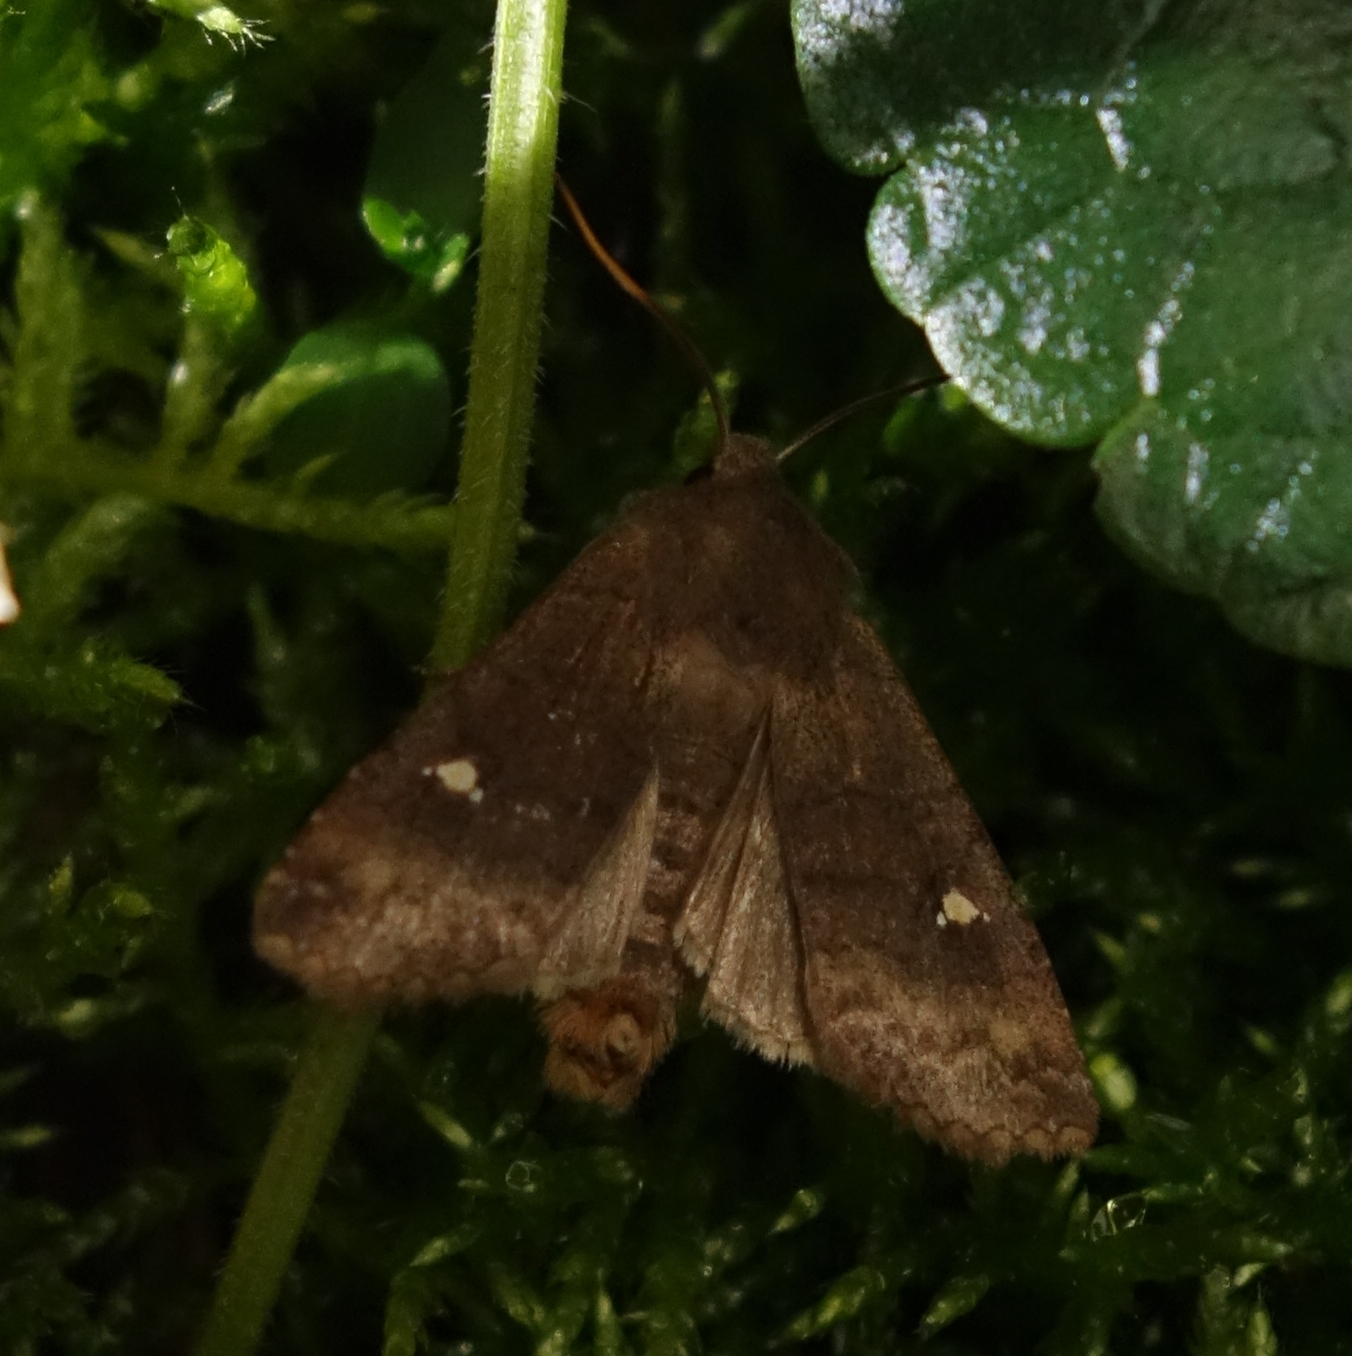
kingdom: Animalia
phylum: Arthropoda
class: Insecta
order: Lepidoptera
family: Noctuidae
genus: Eupsilia
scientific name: Eupsilia transversa
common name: Satellite
